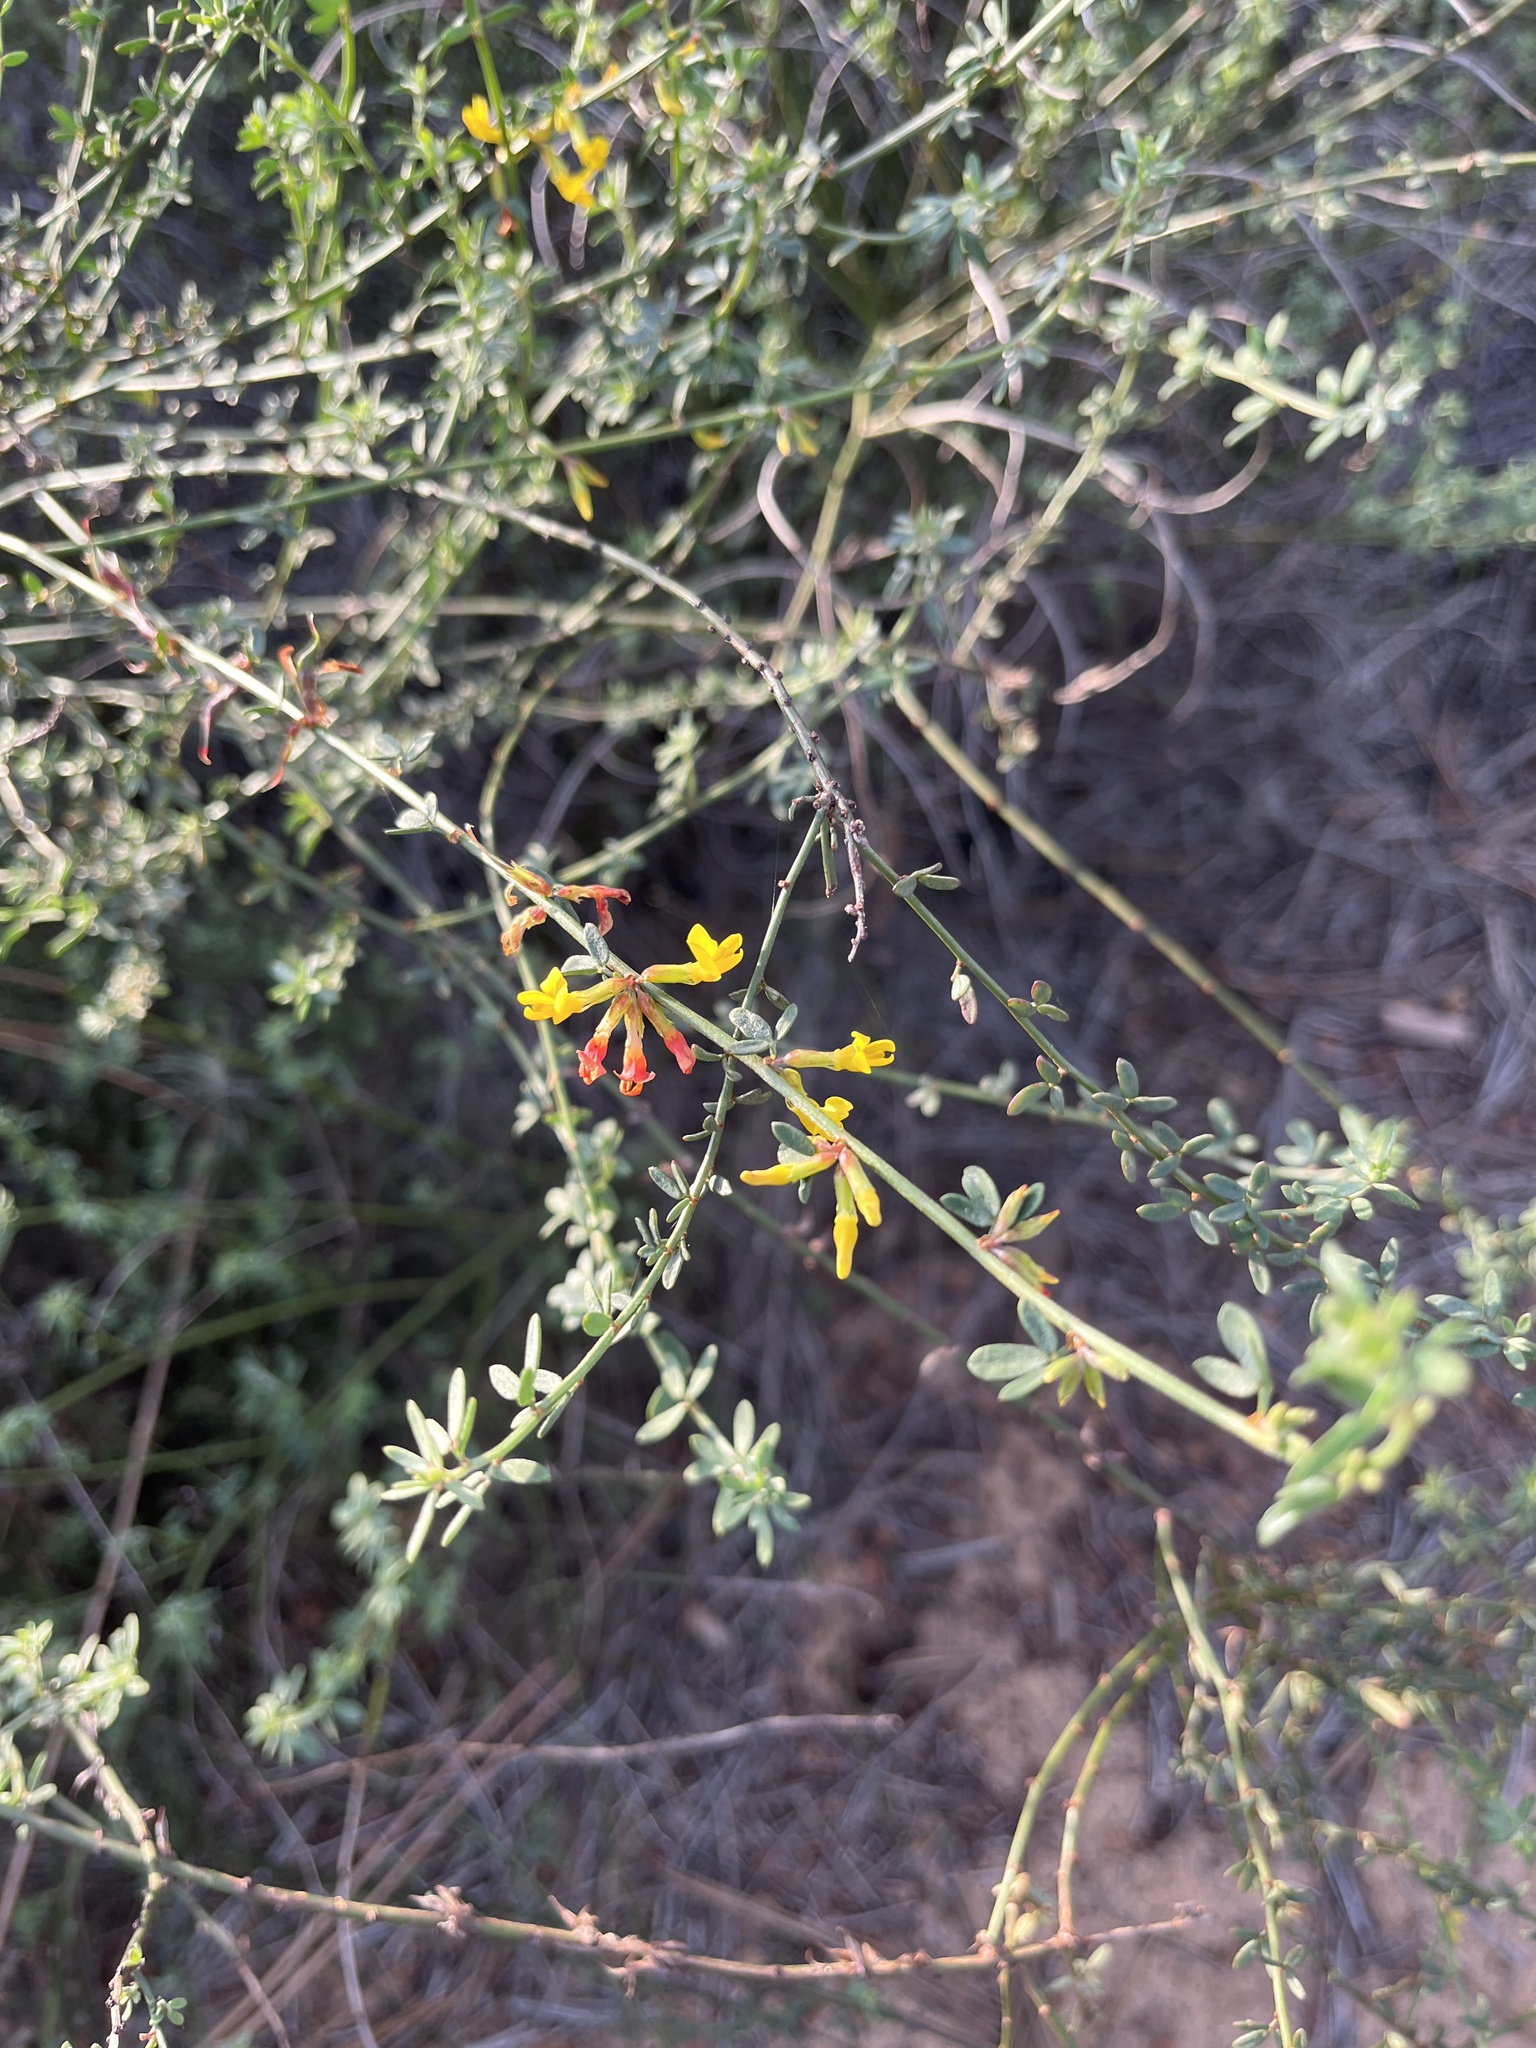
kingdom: Plantae
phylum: Tracheophyta
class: Magnoliopsida
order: Fabales
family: Fabaceae
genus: Acmispon
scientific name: Acmispon glaber
